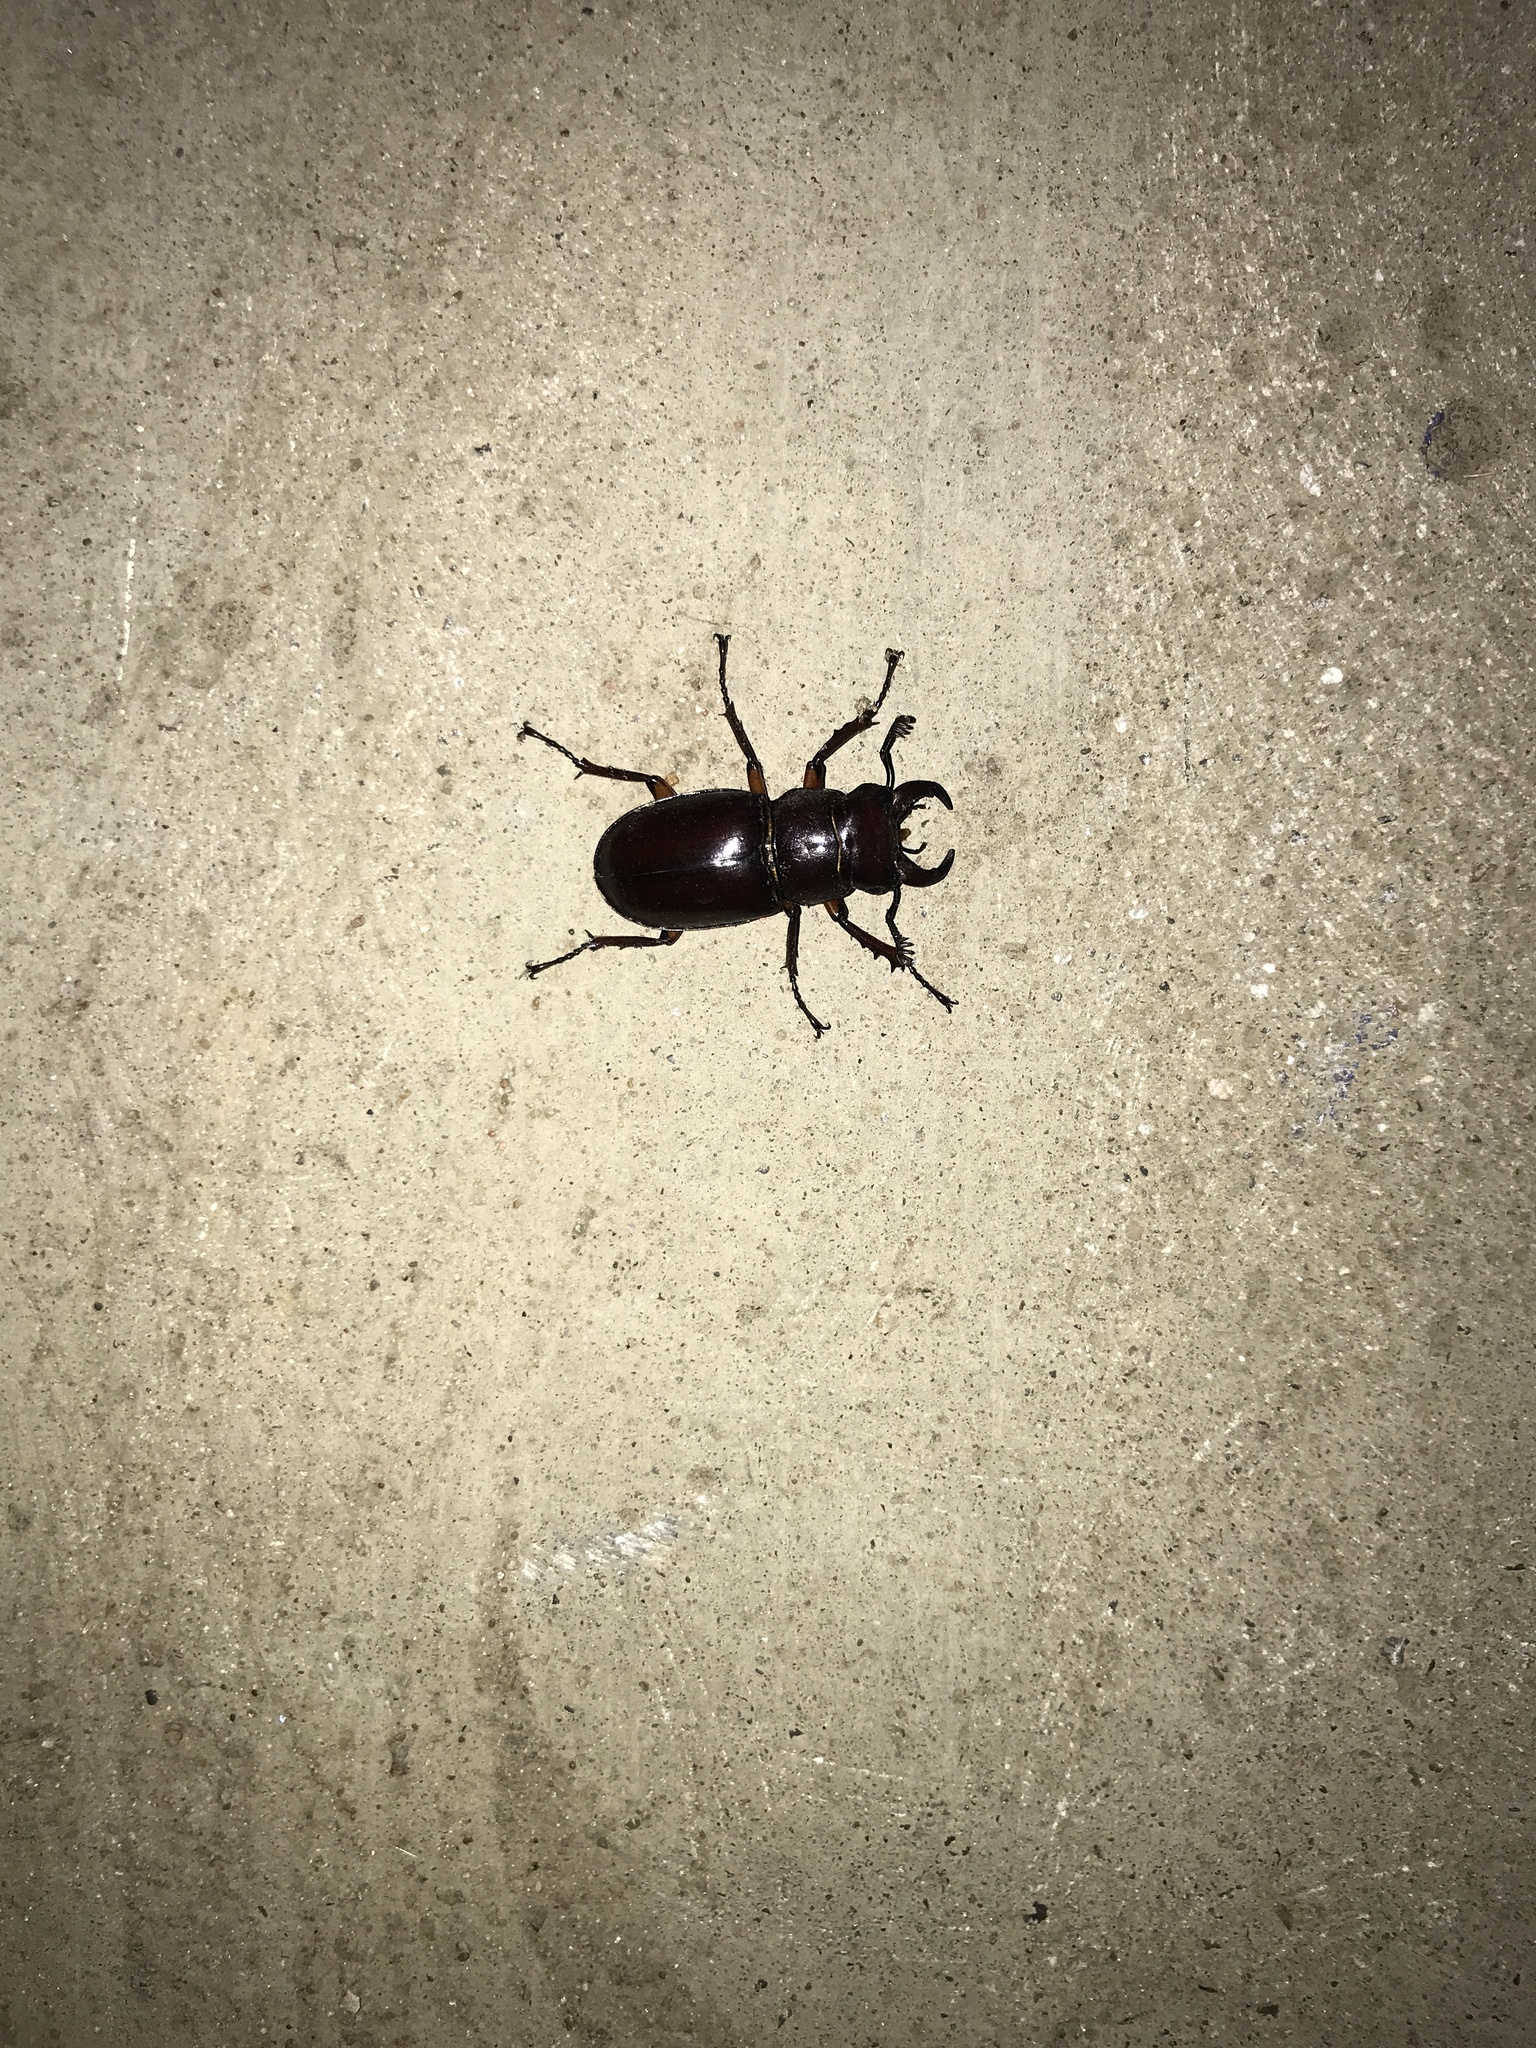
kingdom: Animalia
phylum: Arthropoda
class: Insecta
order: Coleoptera
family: Lucanidae
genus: Lucanus
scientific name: Lucanus capreolus
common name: Stag beetle
